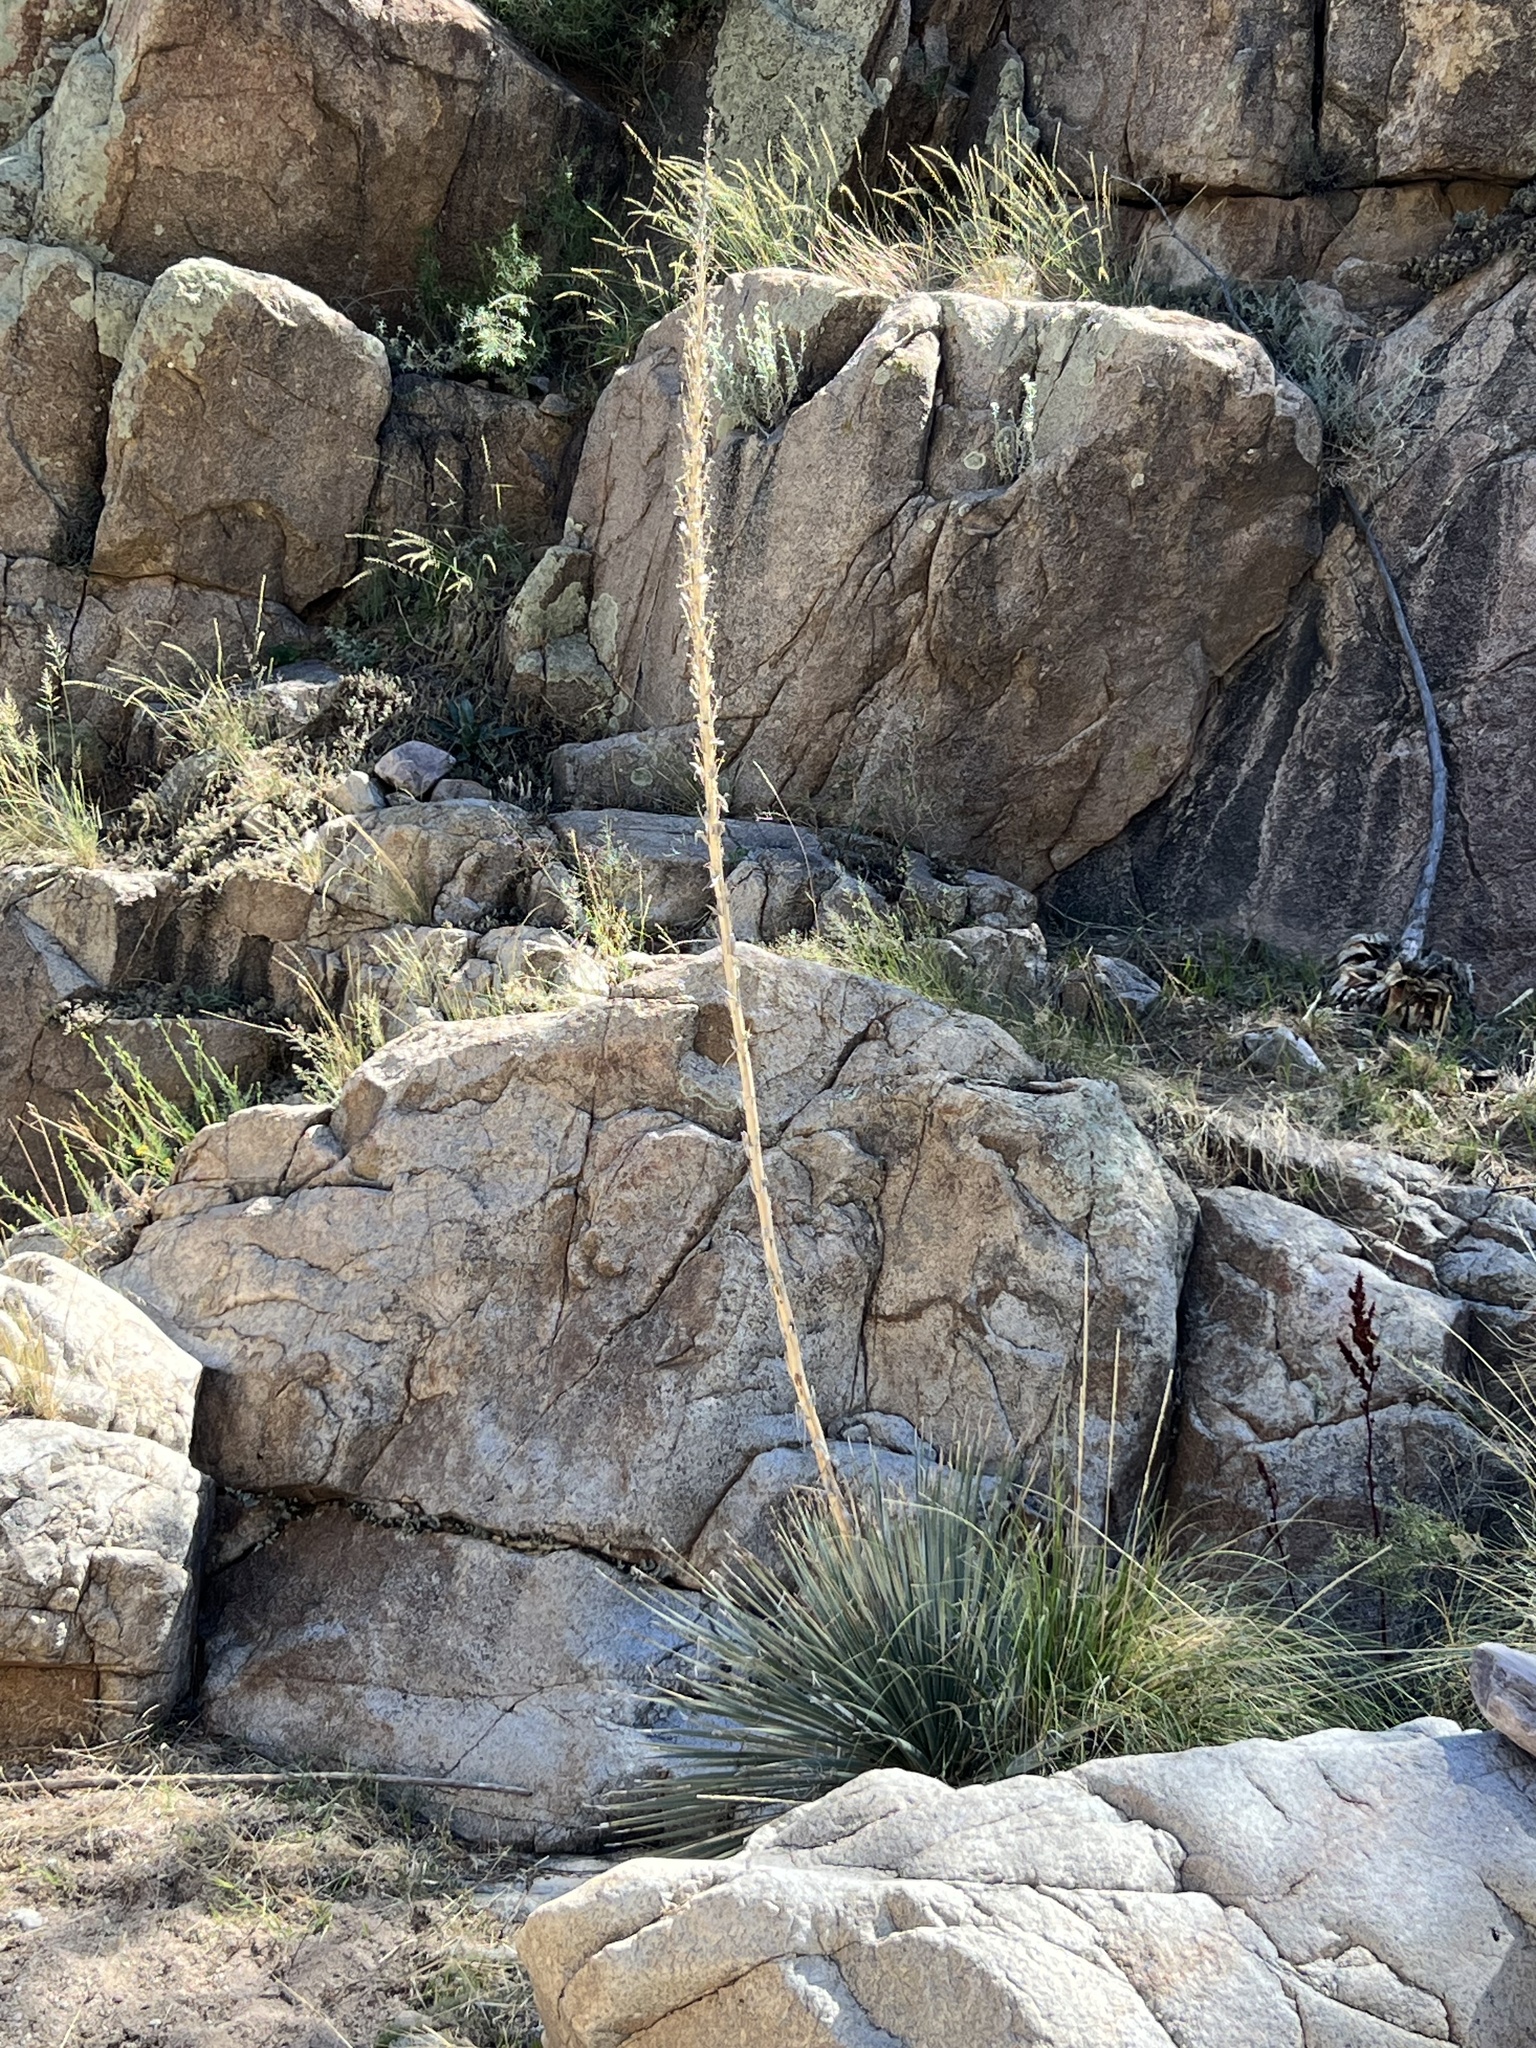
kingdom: Plantae
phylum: Tracheophyta
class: Liliopsida
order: Asparagales
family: Asparagaceae
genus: Dasylirion
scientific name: Dasylirion wheeleri
